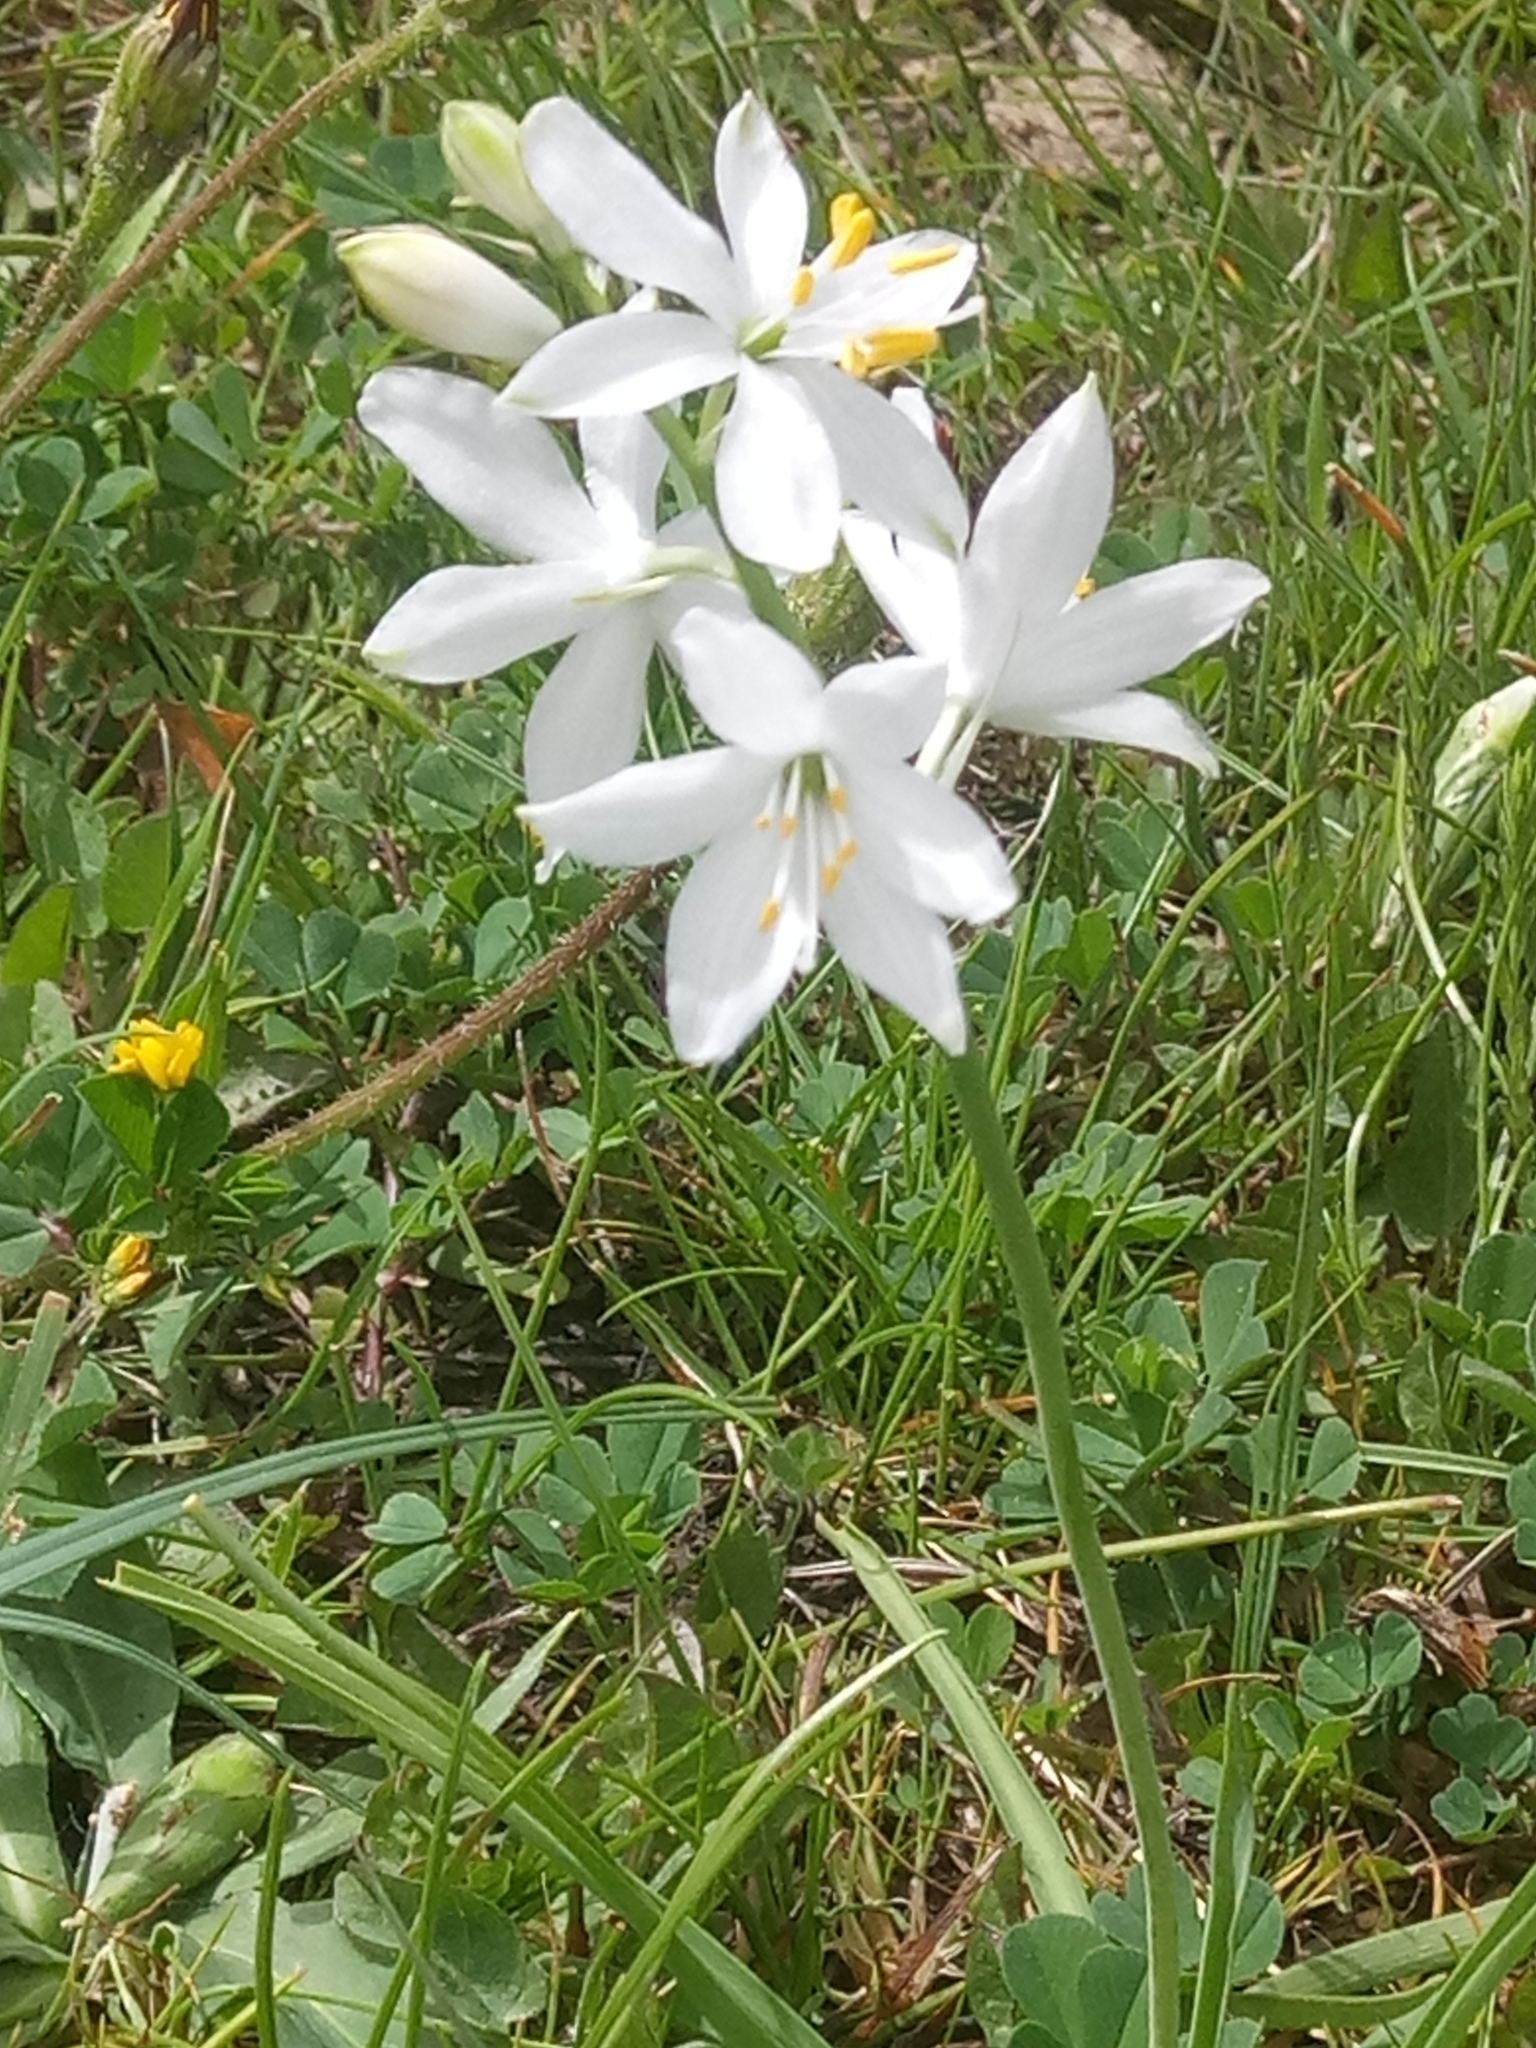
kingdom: Plantae
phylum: Tracheophyta
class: Liliopsida
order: Asparagales
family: Asparagaceae
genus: Anthericum
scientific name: Anthericum baeticum
